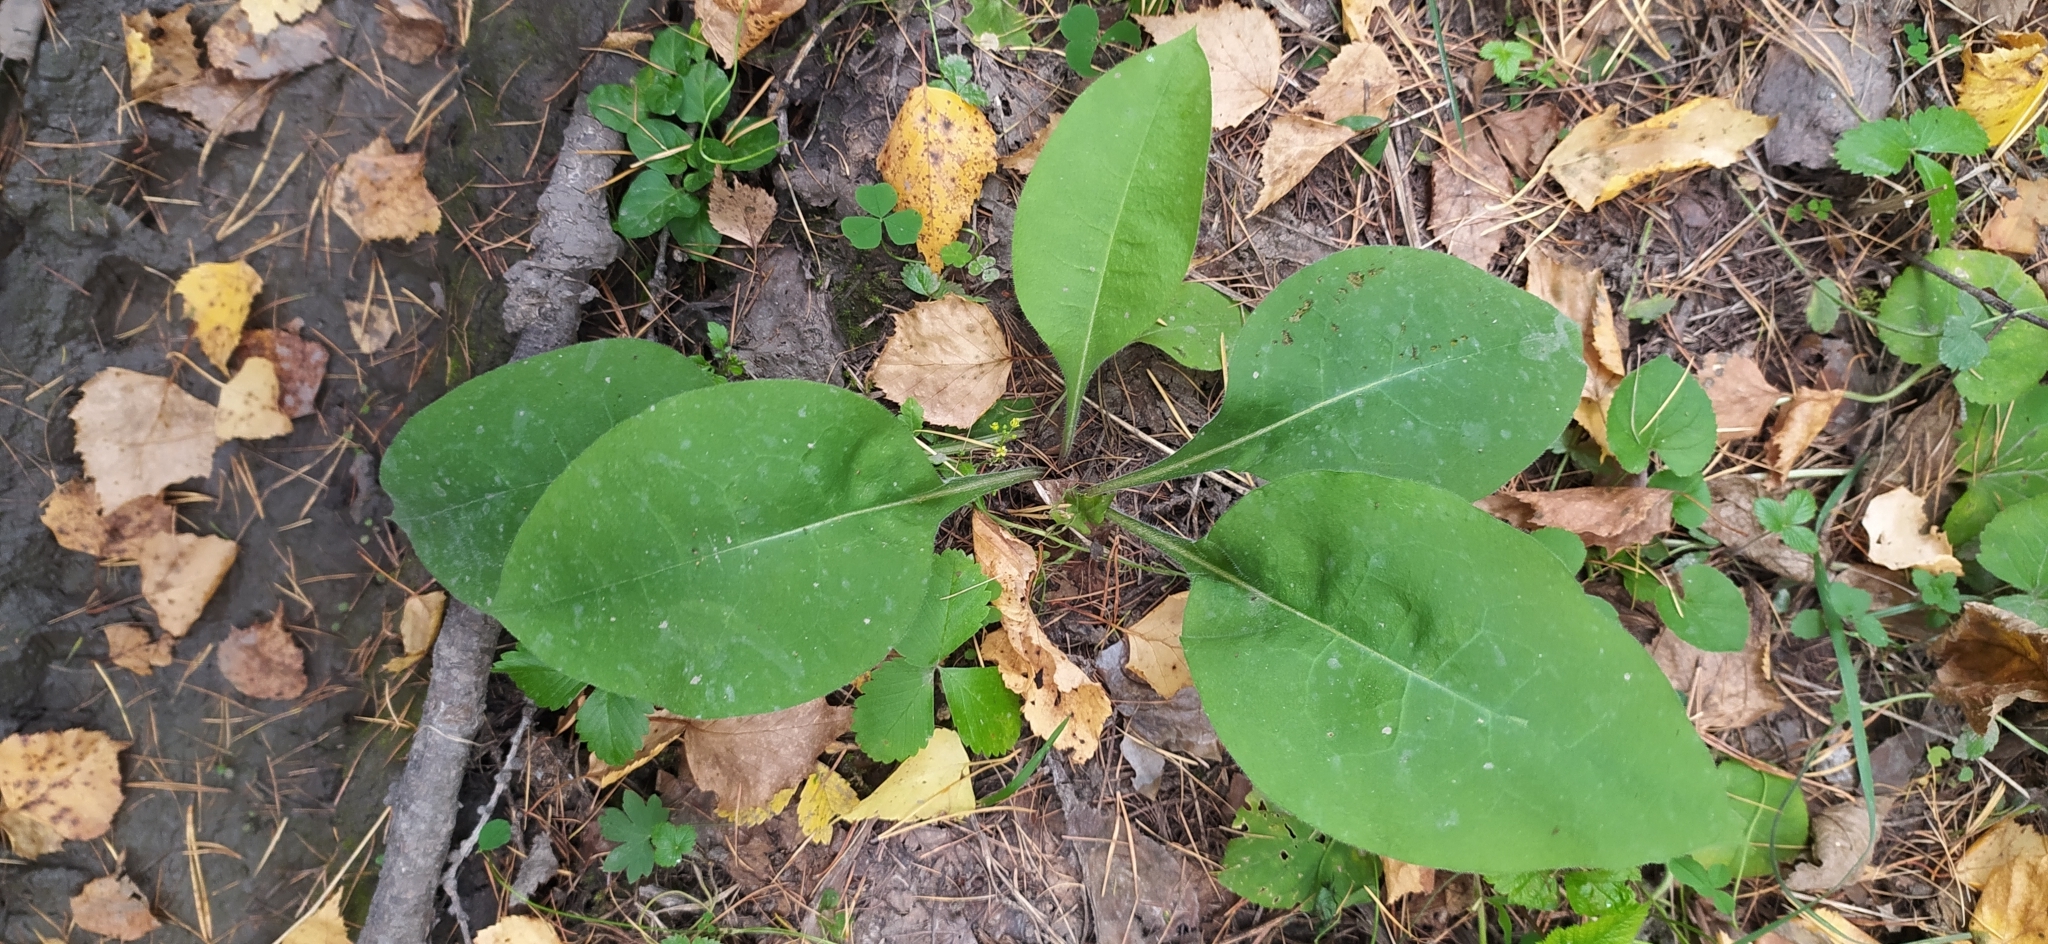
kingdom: Plantae
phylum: Tracheophyta
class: Magnoliopsida
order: Boraginales
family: Boraginaceae
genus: Pulmonaria
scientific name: Pulmonaria mollis
